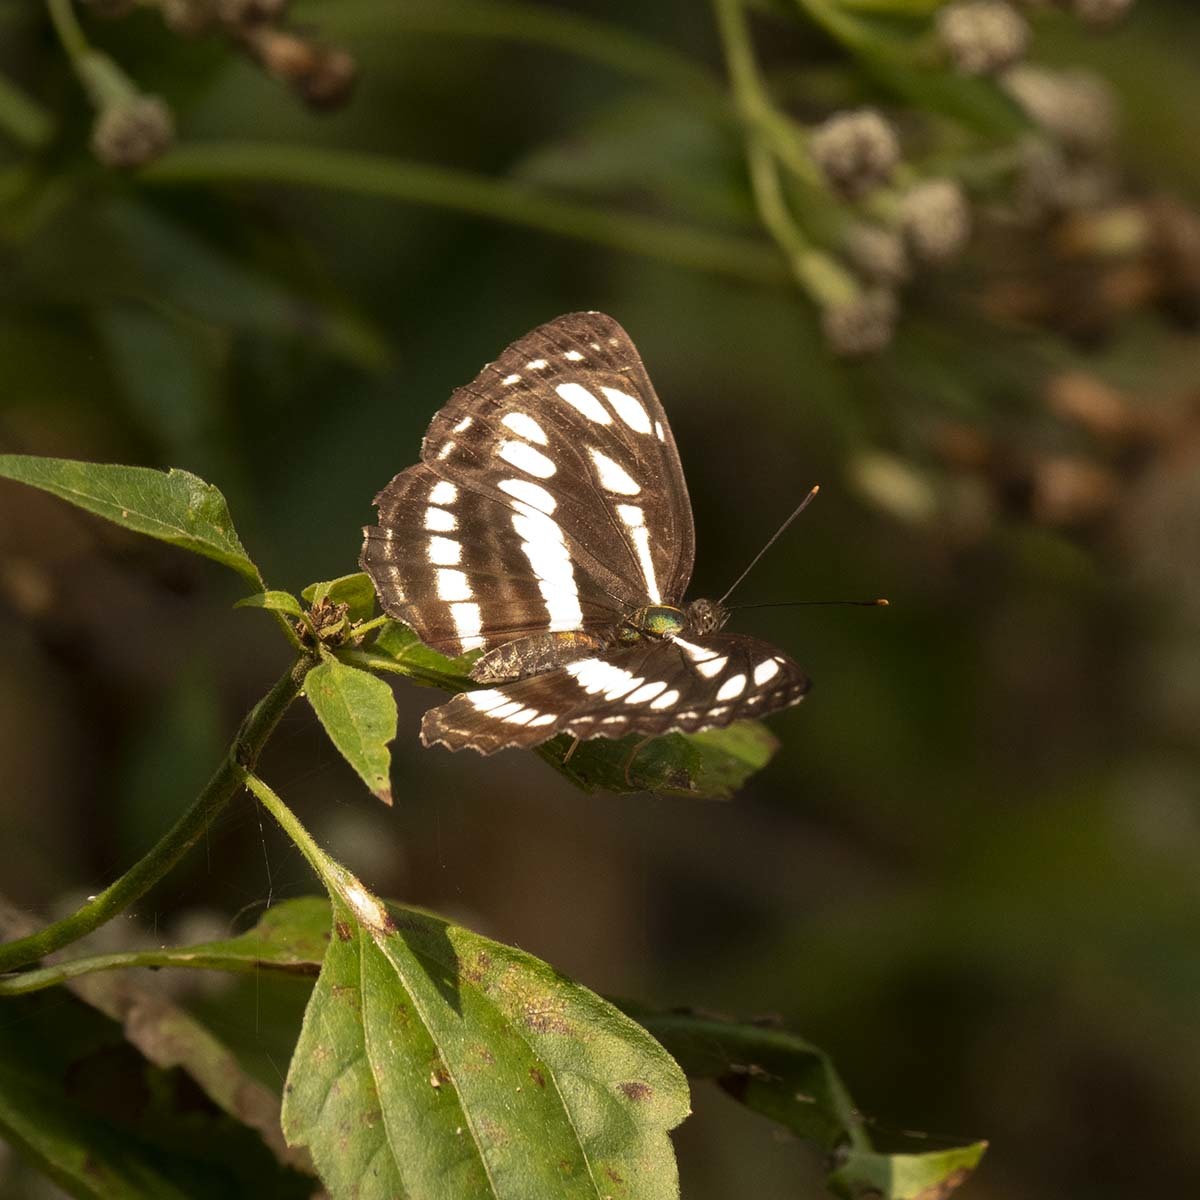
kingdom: Animalia
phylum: Arthropoda
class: Insecta
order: Lepidoptera
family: Nymphalidae
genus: Neptis
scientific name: Neptis hylas
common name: Common sailer
